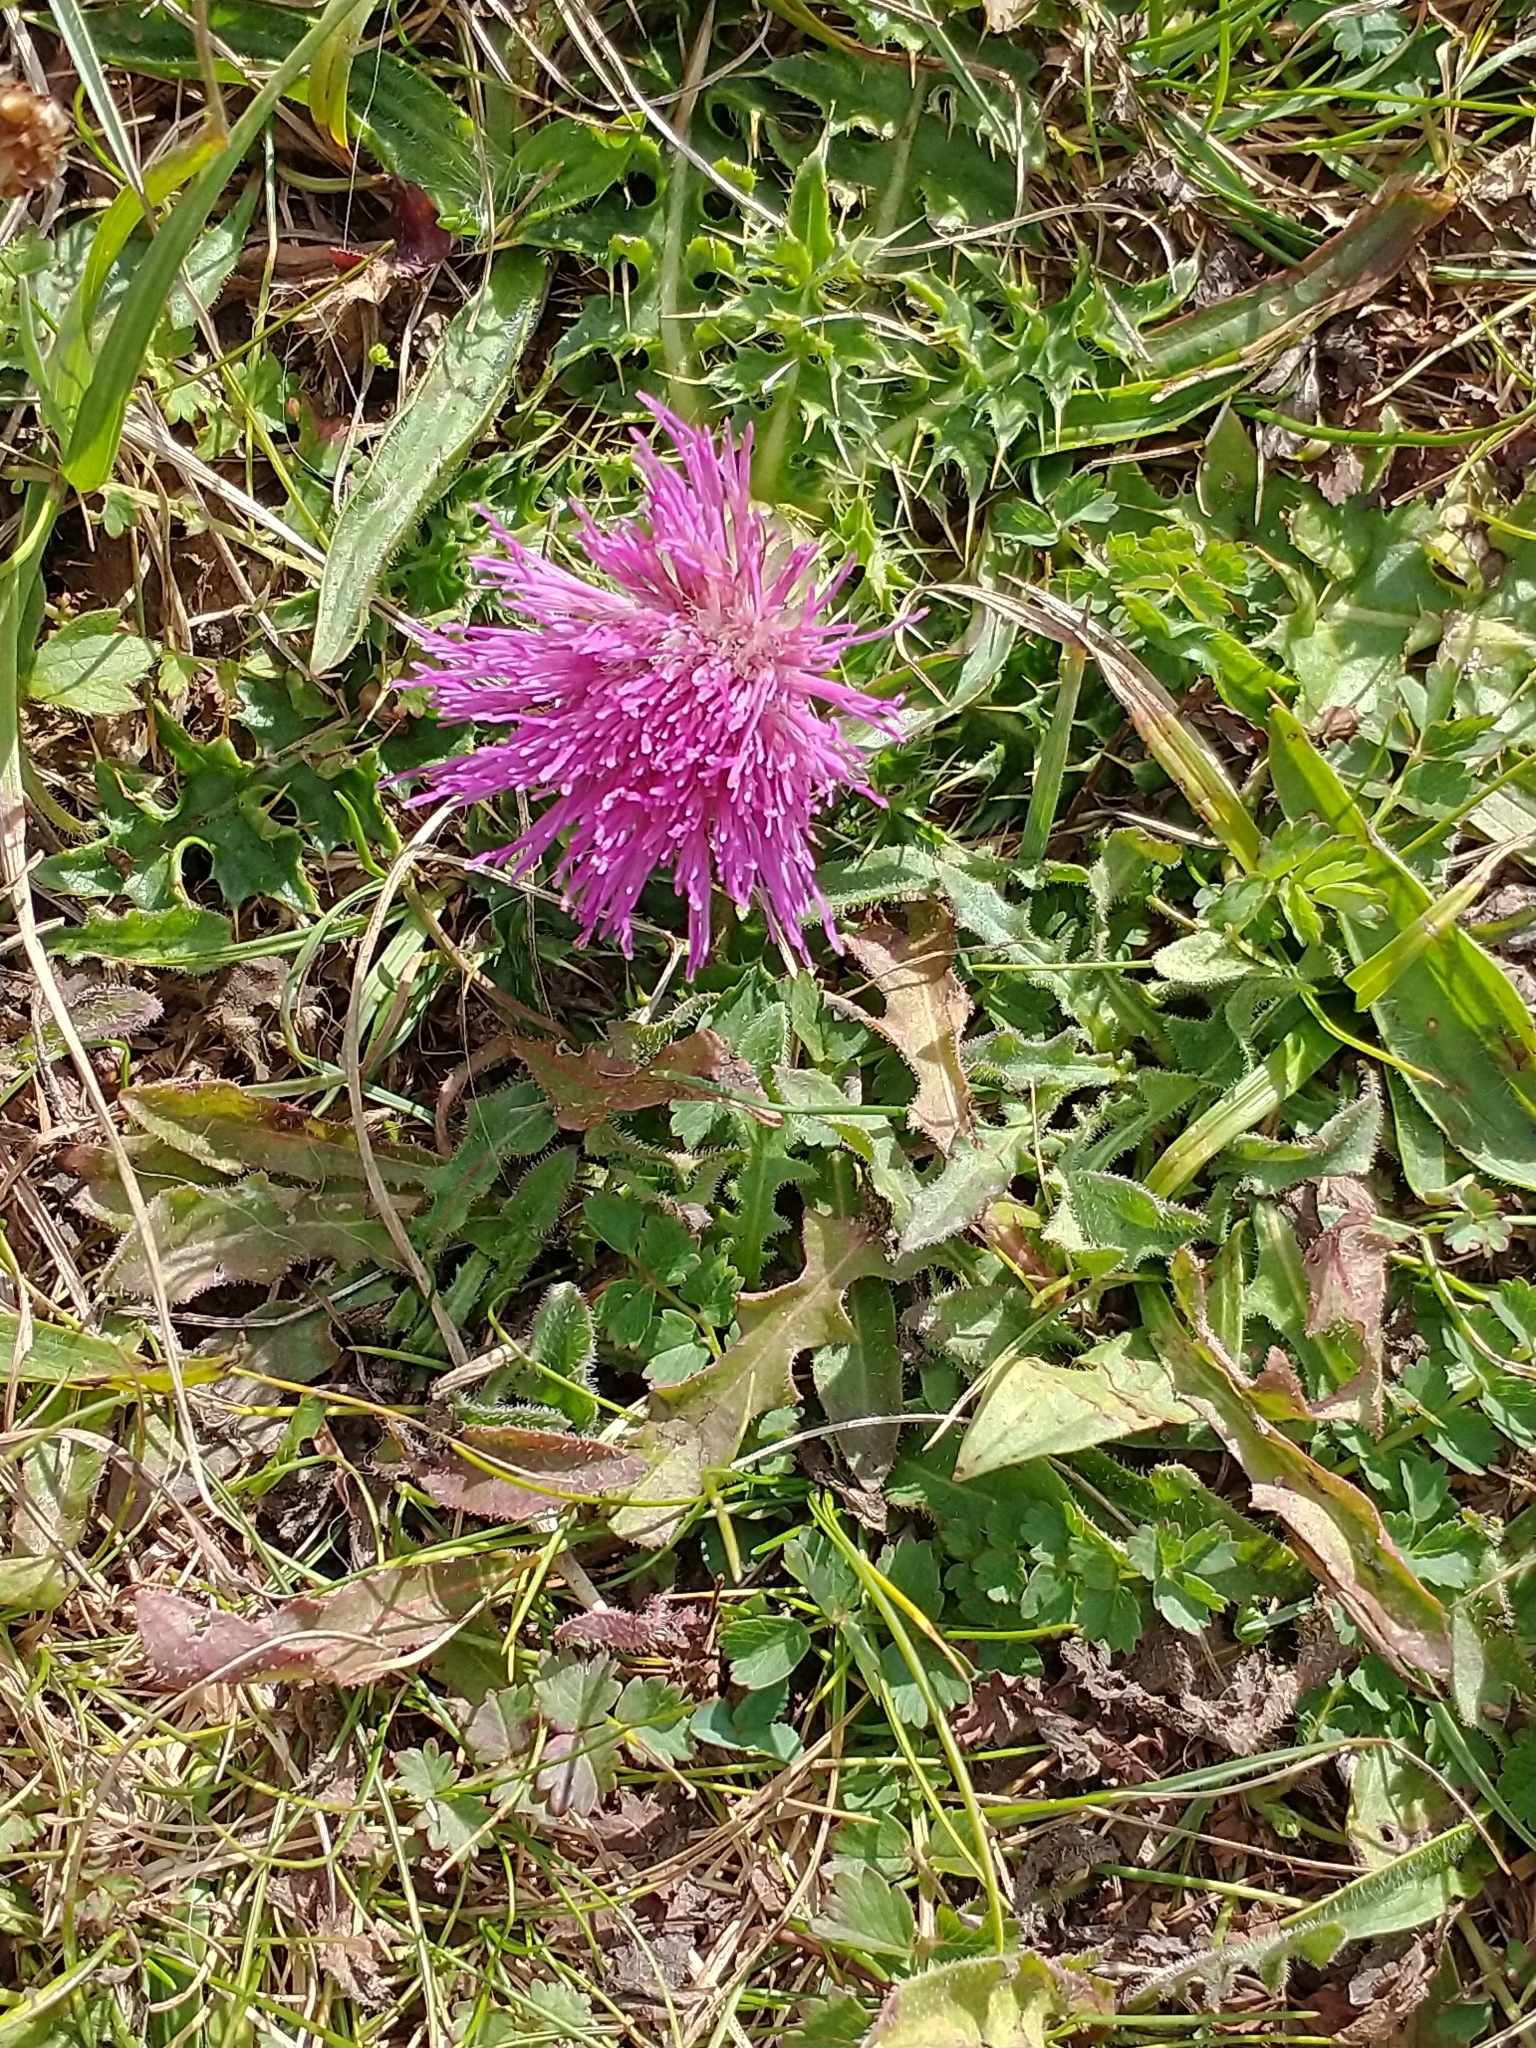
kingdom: Plantae
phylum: Tracheophyta
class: Magnoliopsida
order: Asterales
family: Asteraceae
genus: Cirsium
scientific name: Cirsium acaulon
